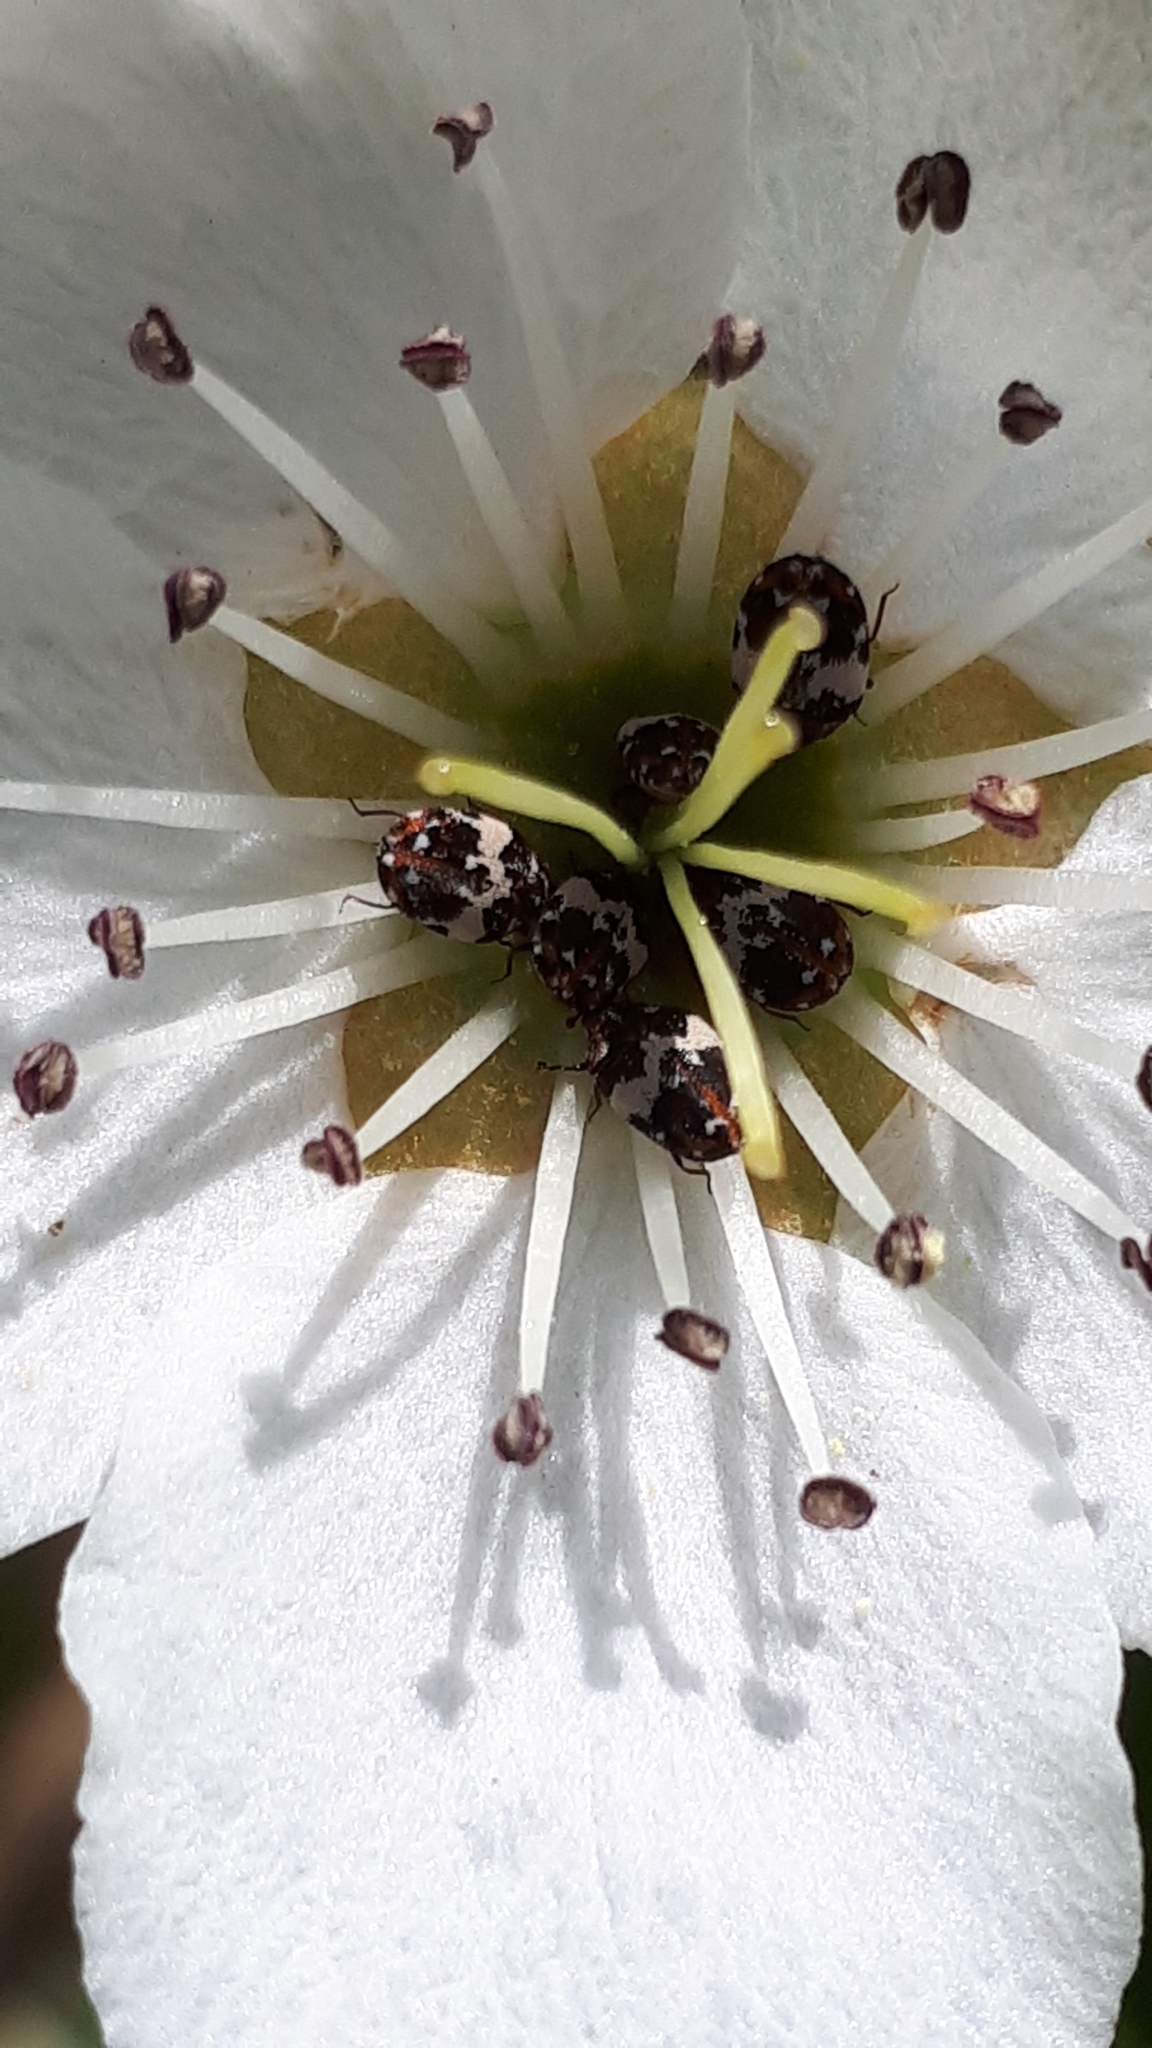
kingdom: Animalia
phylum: Arthropoda
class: Insecta
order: Coleoptera
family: Dermestidae
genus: Anthrenus
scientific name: Anthrenus pimpinellae
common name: Dermestid beetle
